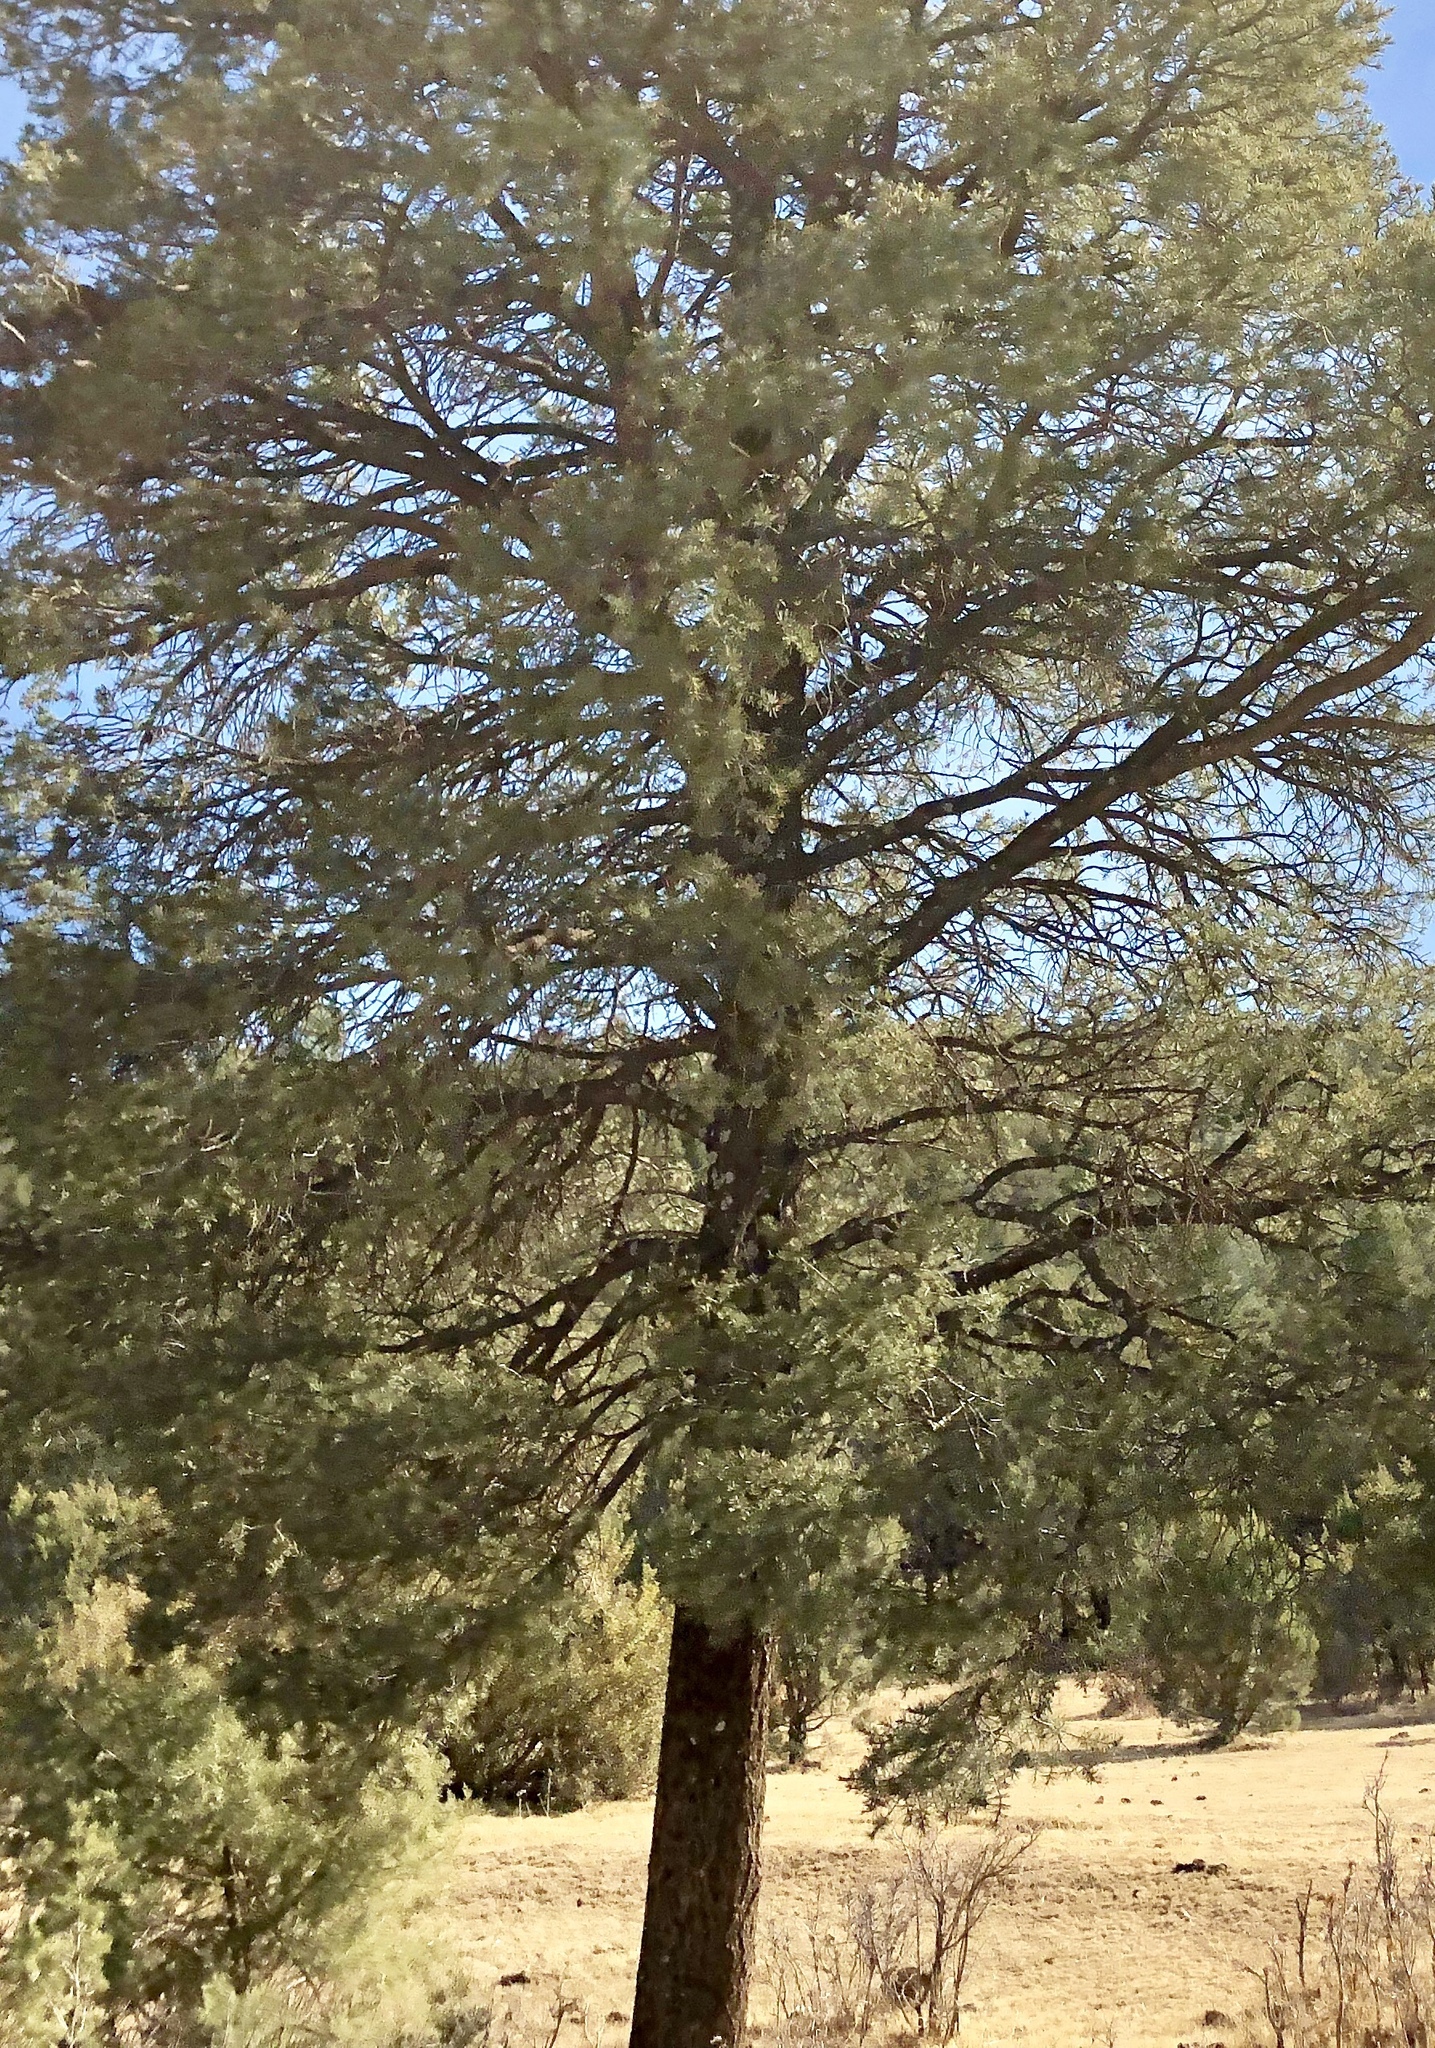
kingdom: Plantae
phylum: Tracheophyta
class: Pinopsida
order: Pinales
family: Pinaceae
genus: Pinus
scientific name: Pinus edulis
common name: Colorado pinyon
